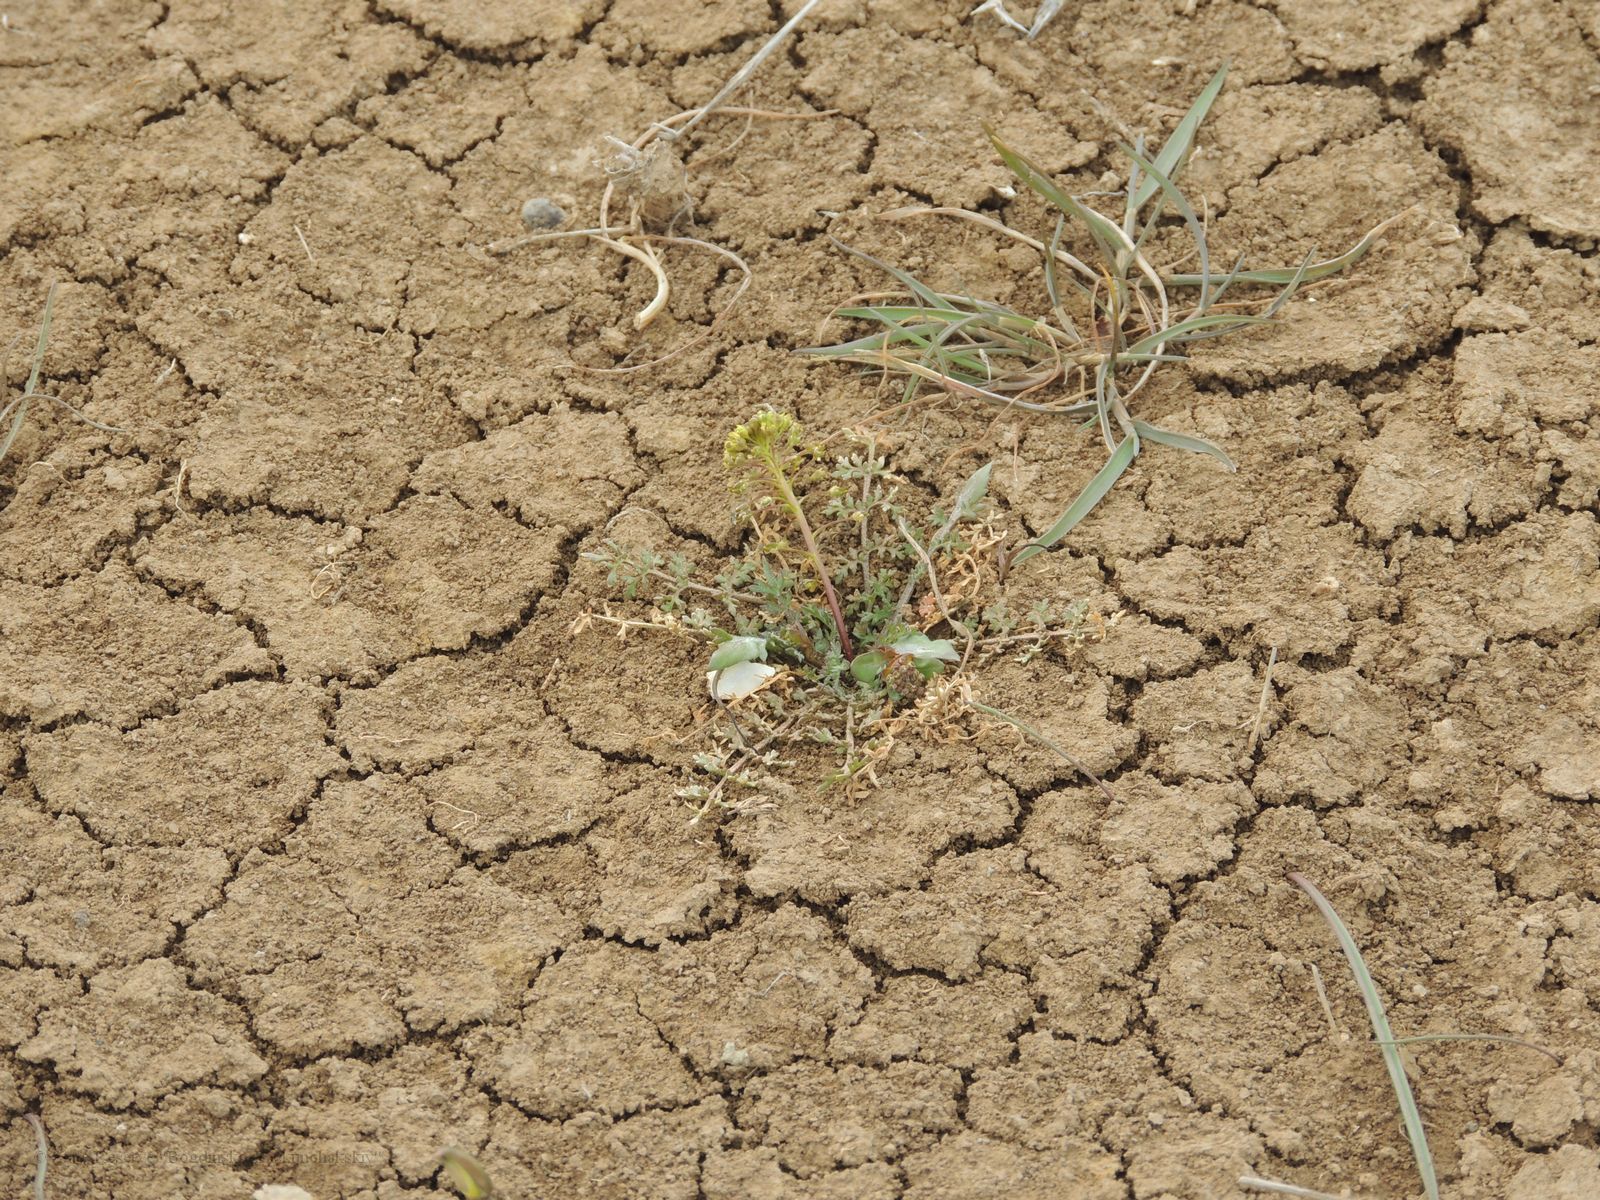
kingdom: Plantae
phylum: Tracheophyta
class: Magnoliopsida
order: Brassicales
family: Brassicaceae
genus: Lepidium
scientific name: Lepidium perfoliatum
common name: Perfoliate pepperwort
